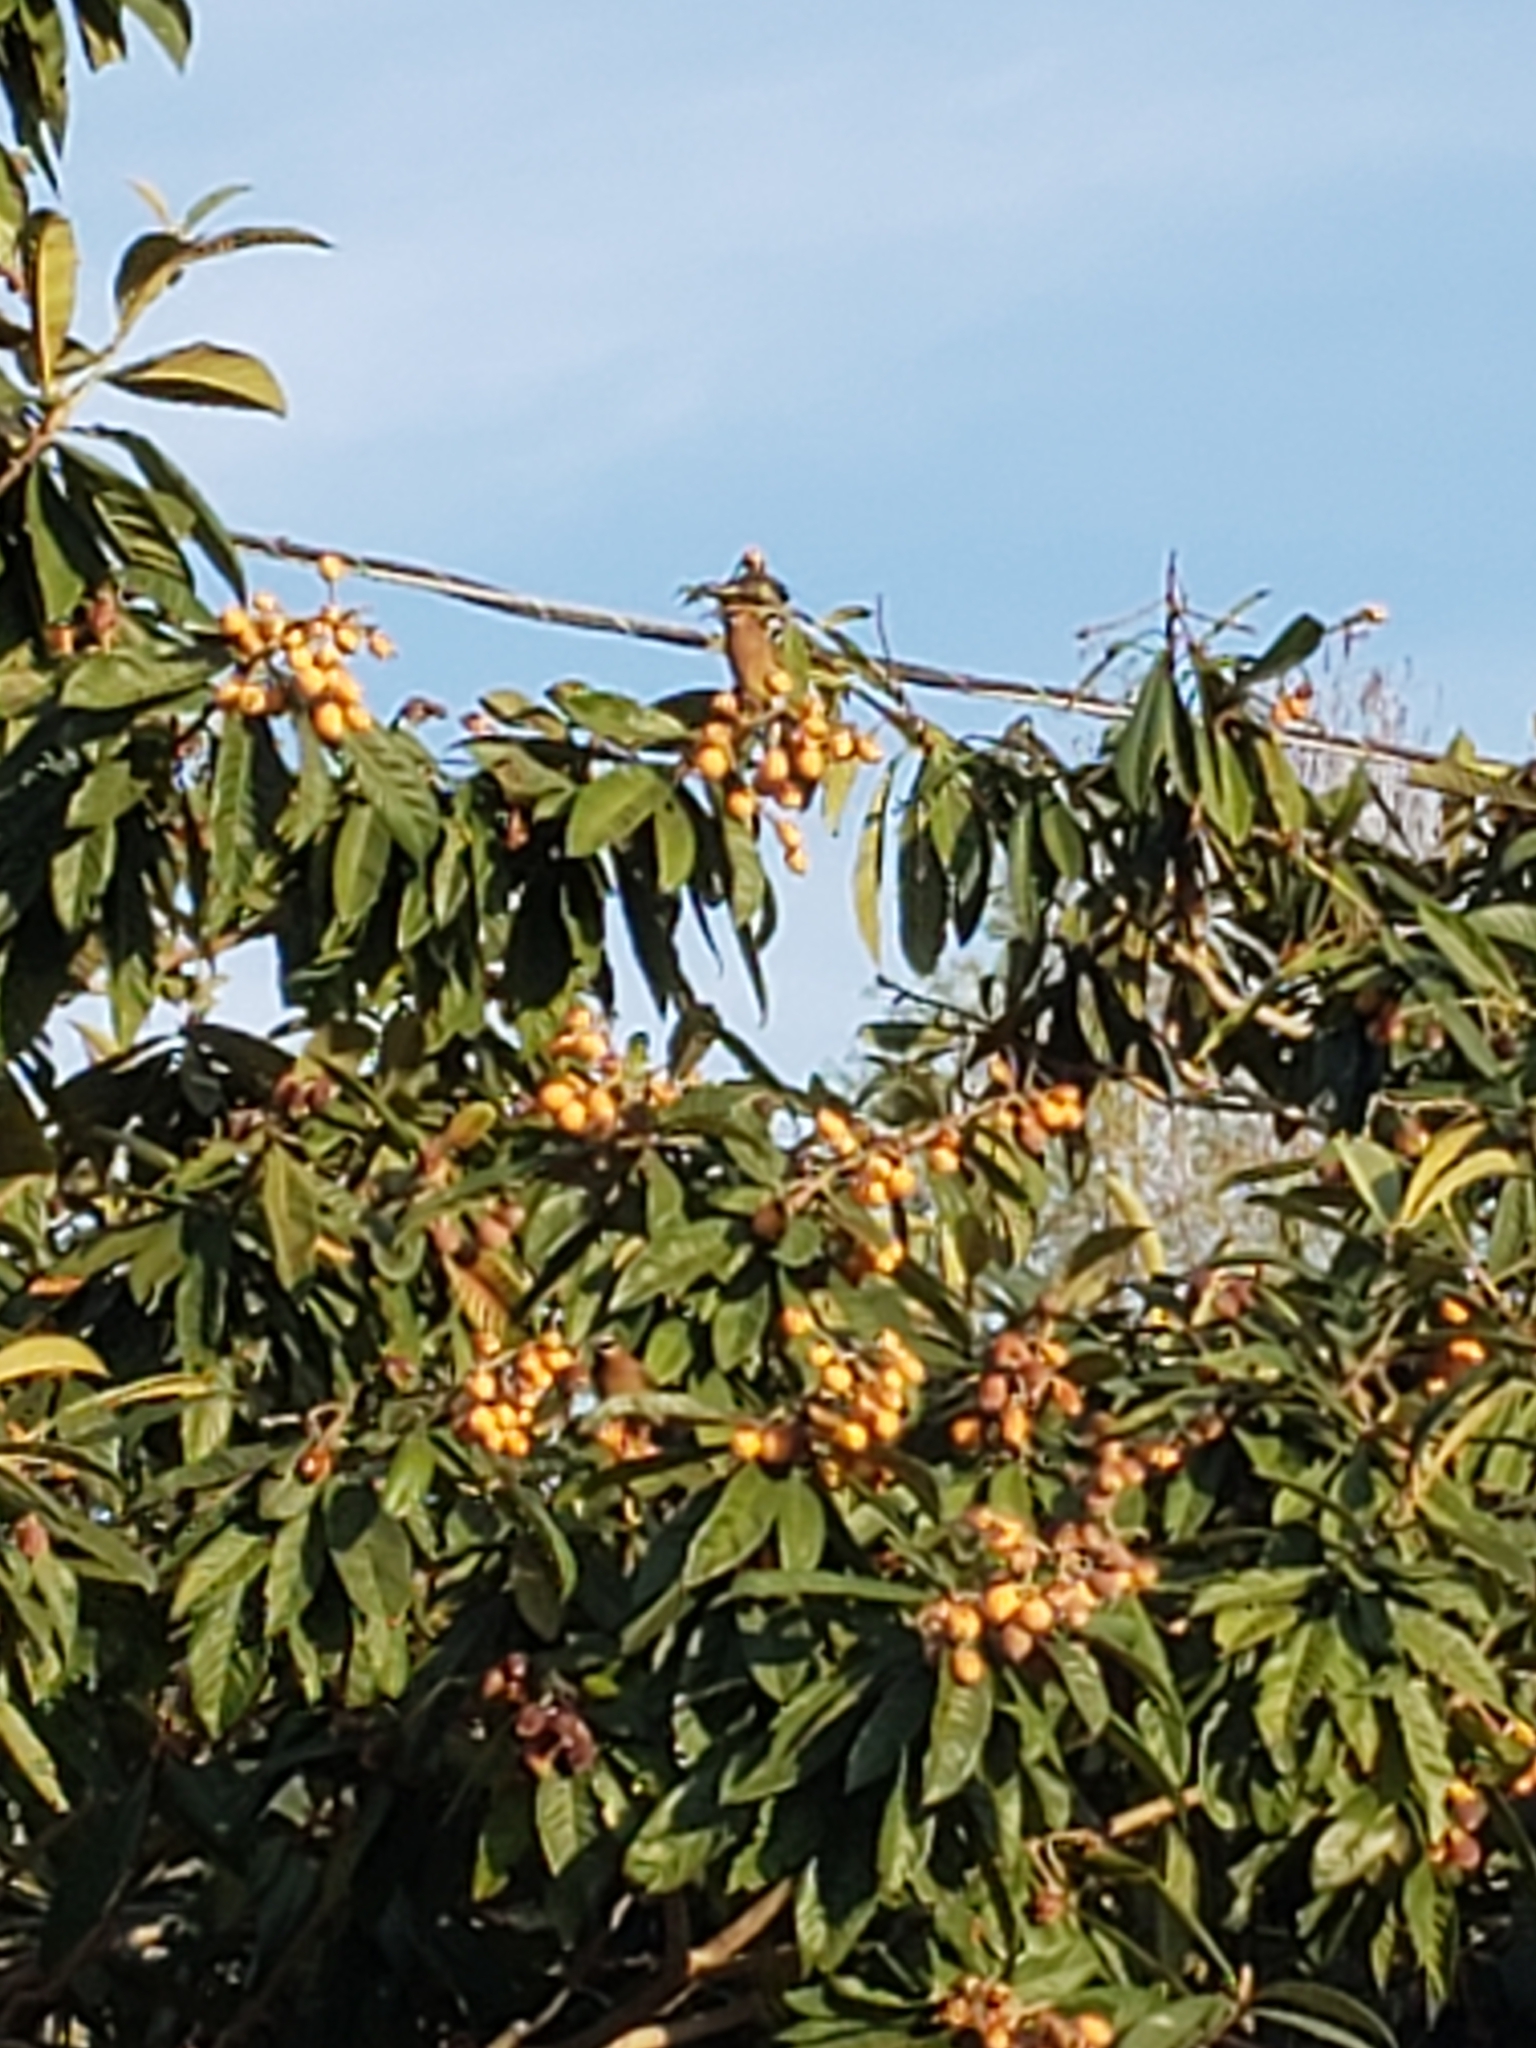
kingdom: Animalia
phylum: Chordata
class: Aves
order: Passeriformes
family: Bombycillidae
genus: Bombycilla
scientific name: Bombycilla cedrorum
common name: Cedar waxwing
